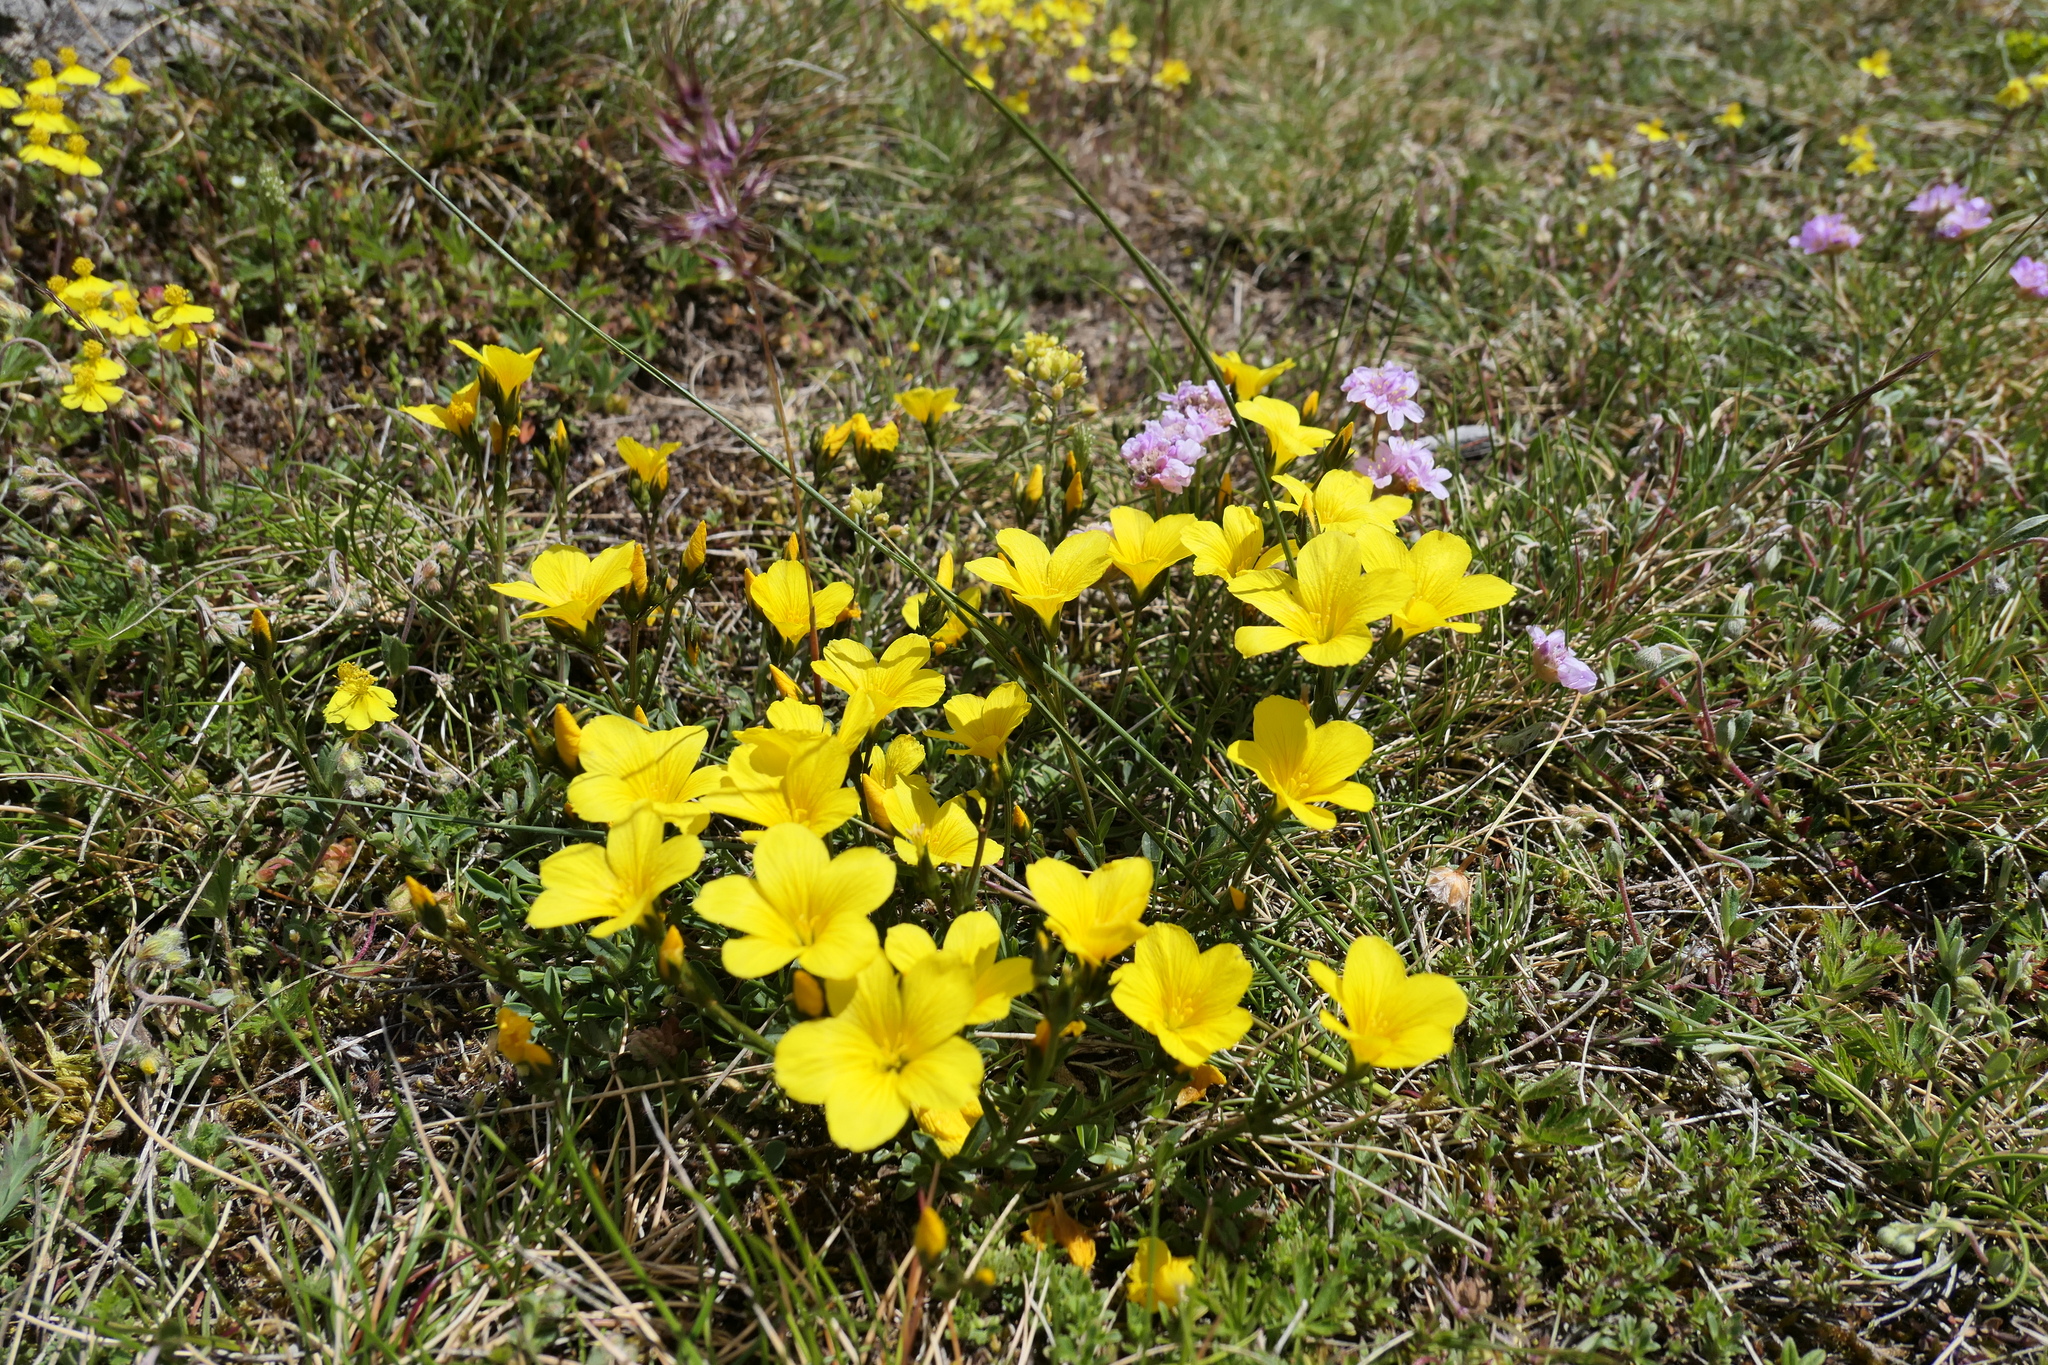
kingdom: Plantae
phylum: Tracheophyta
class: Magnoliopsida
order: Malpighiales
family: Linaceae
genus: Linum
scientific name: Linum campanulatum
